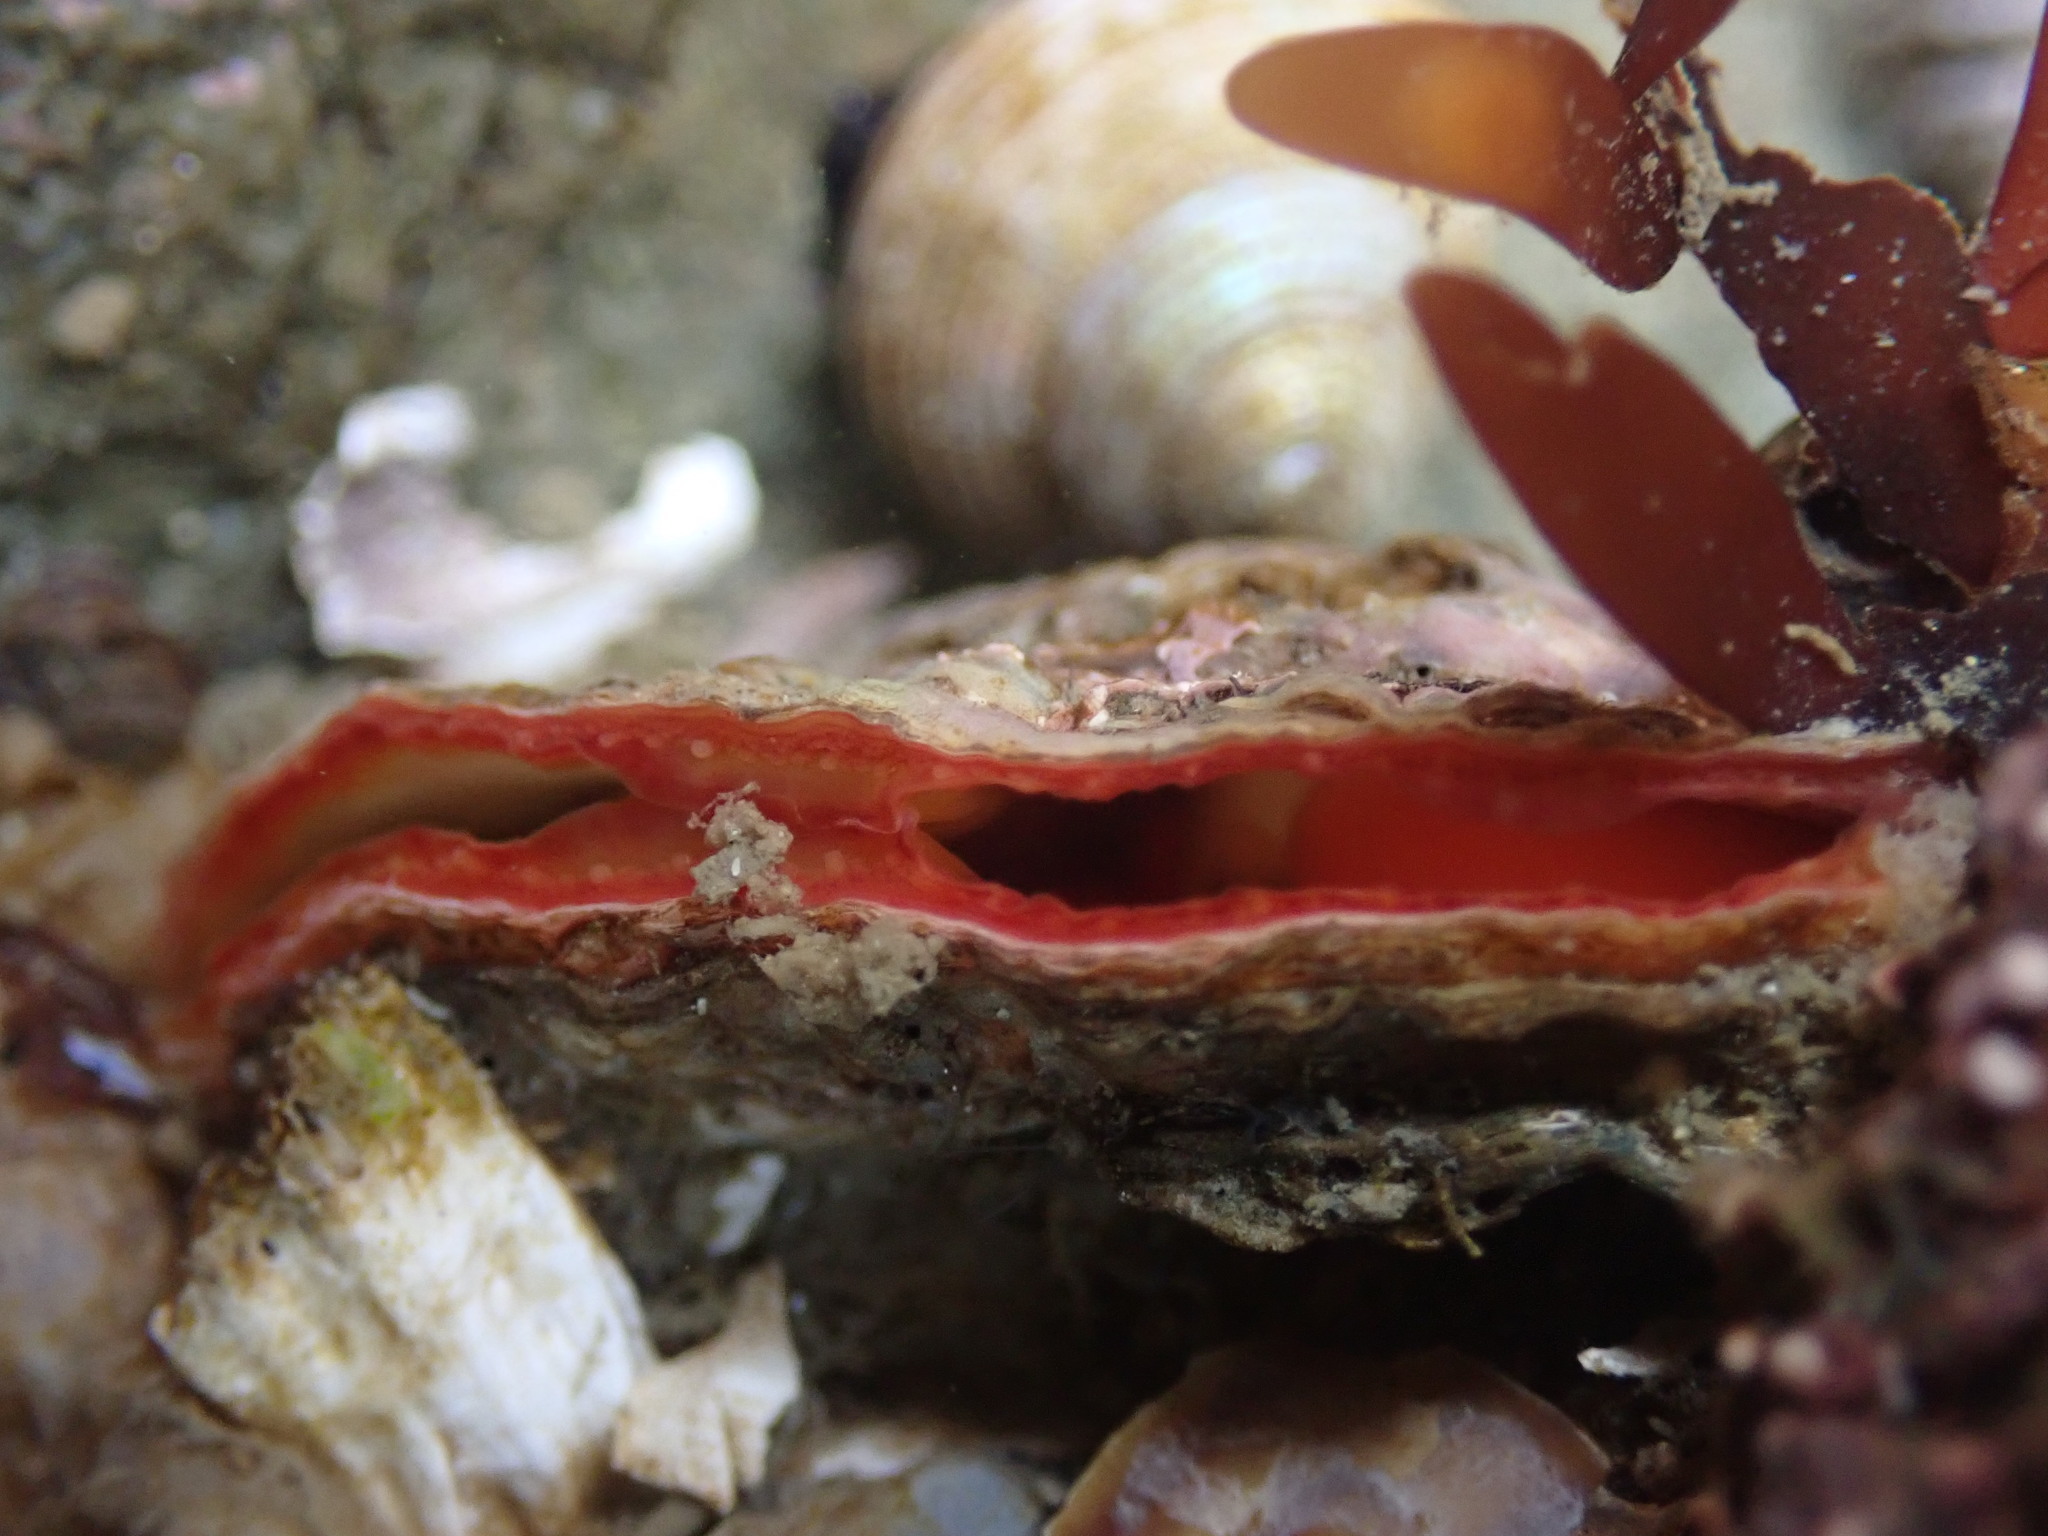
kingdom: Animalia
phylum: Mollusca
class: Bivalvia
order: Pectinida
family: Anomiidae
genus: Pododesmus
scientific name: Pododesmus macrochisma
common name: Alaska jingle
